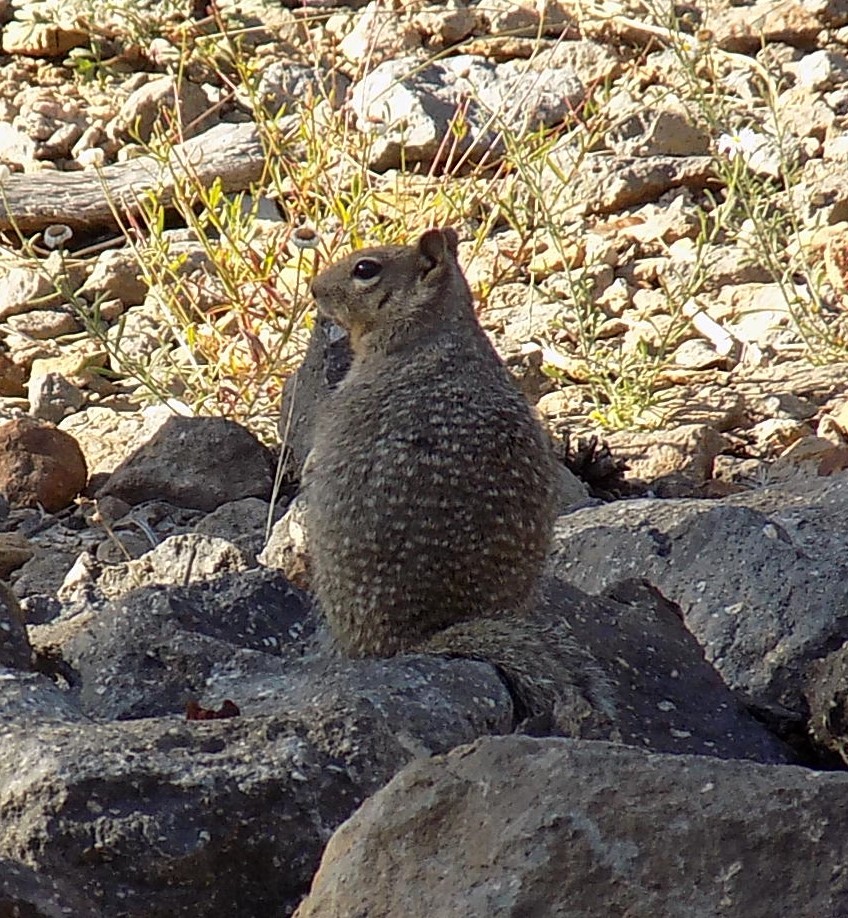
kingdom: Animalia
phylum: Chordata
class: Mammalia
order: Rodentia
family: Sciuridae
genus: Otospermophilus
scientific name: Otospermophilus variegatus
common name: Rock squirrel
